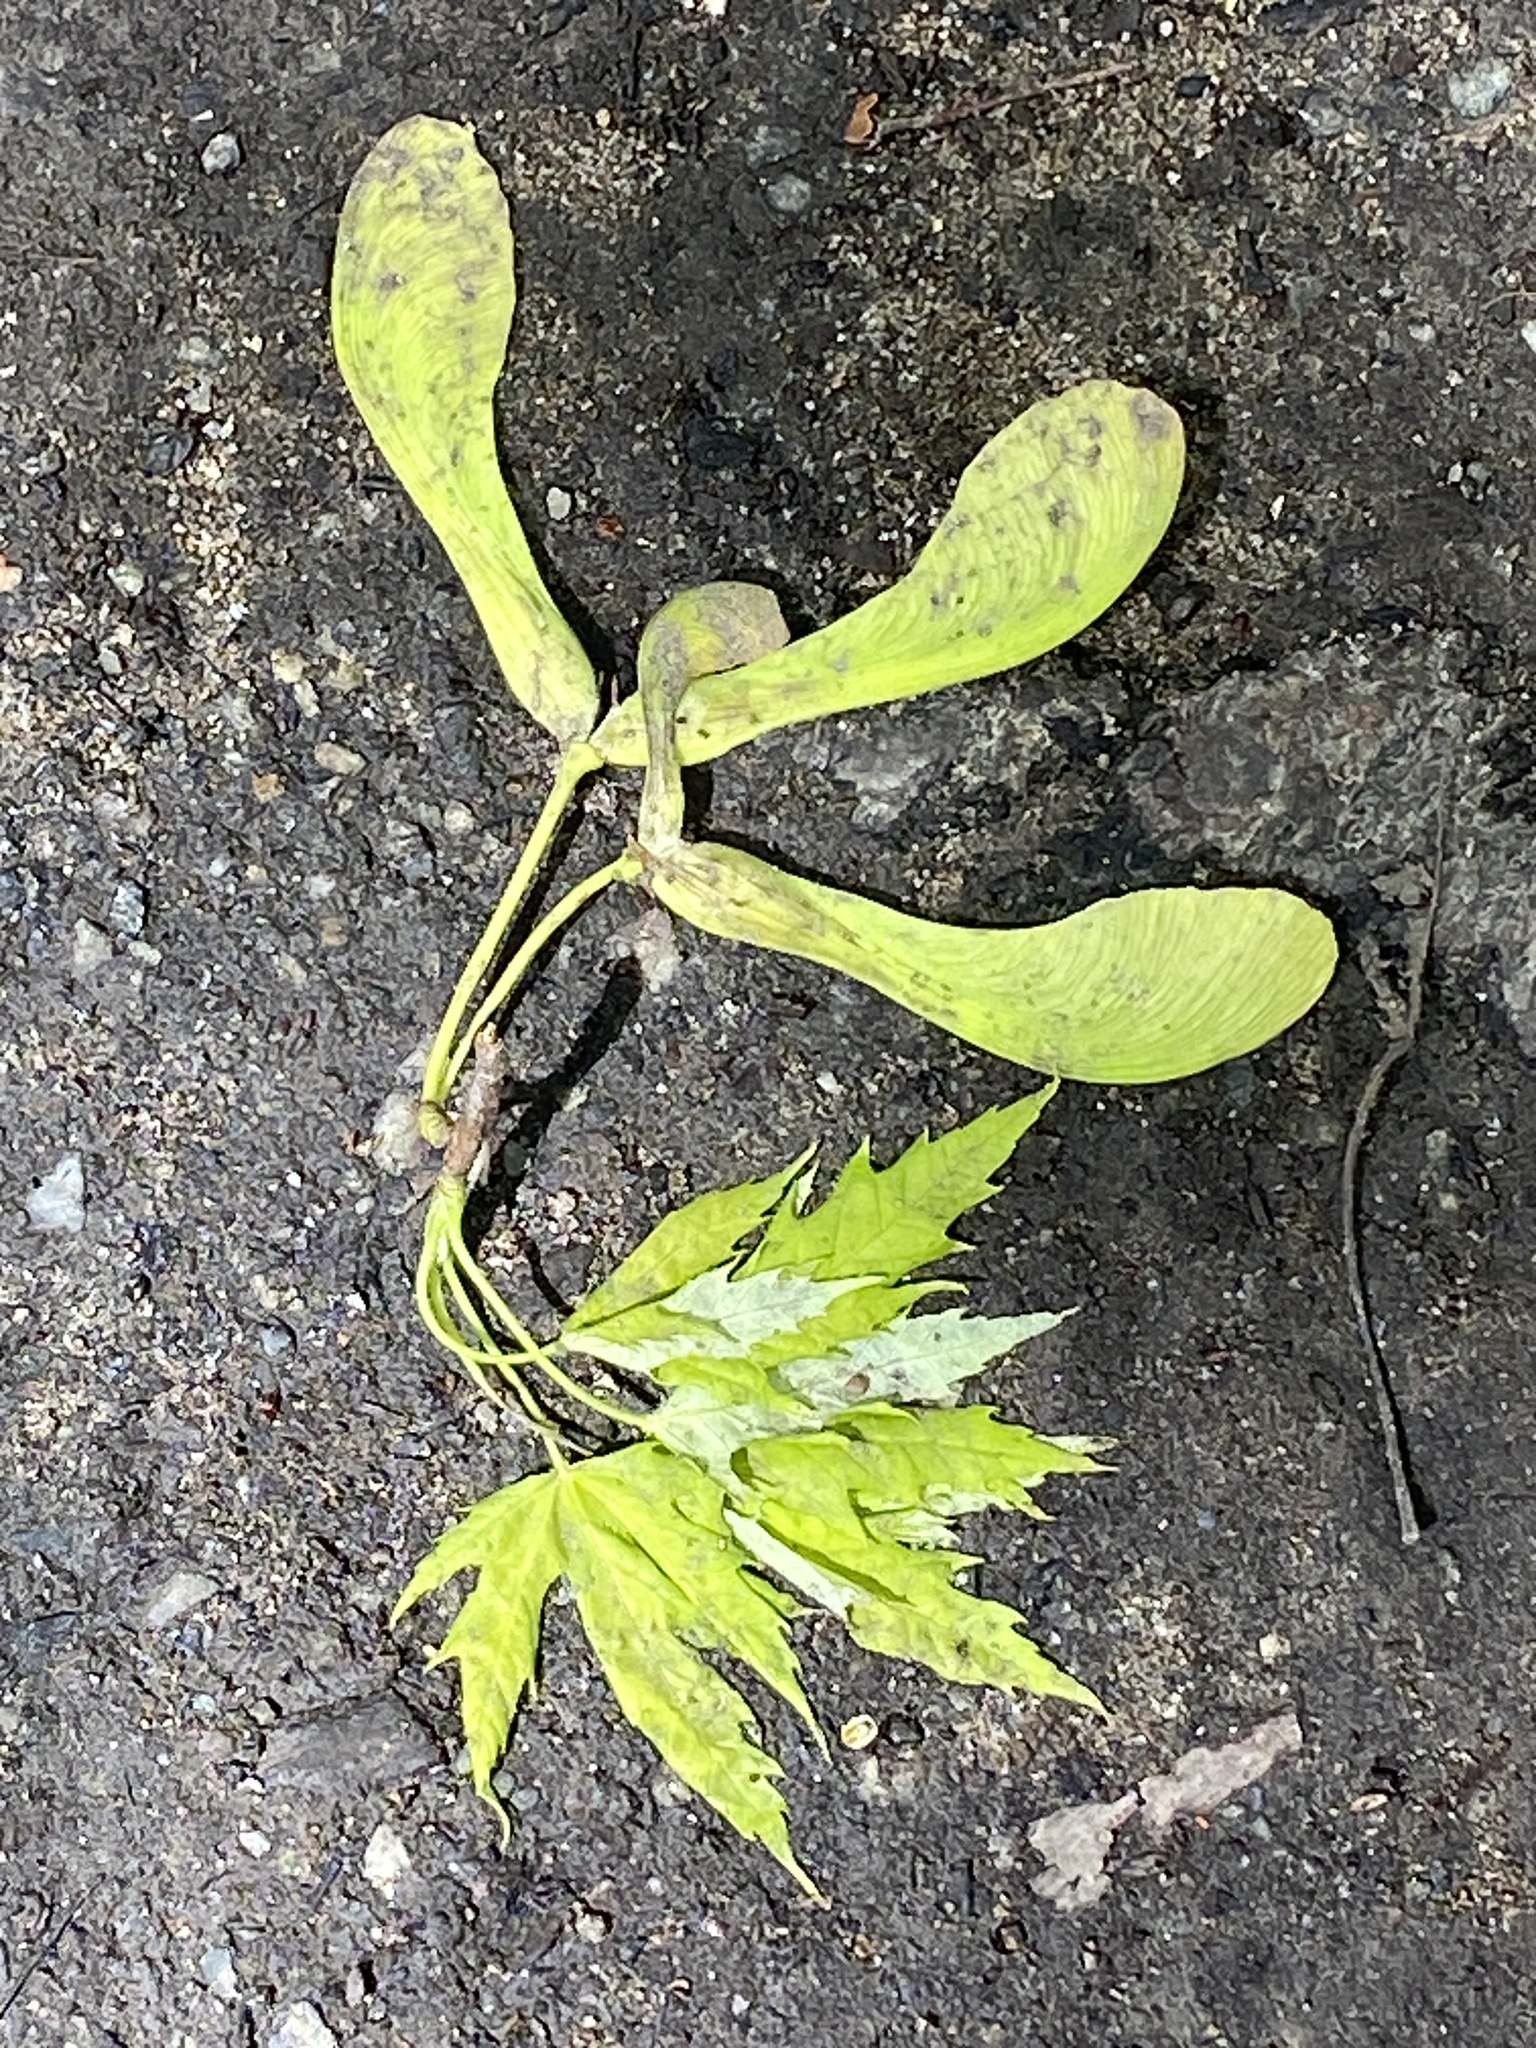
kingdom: Plantae
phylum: Tracheophyta
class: Magnoliopsida
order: Sapindales
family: Sapindaceae
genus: Acer
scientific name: Acer saccharinum
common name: Silver maple
